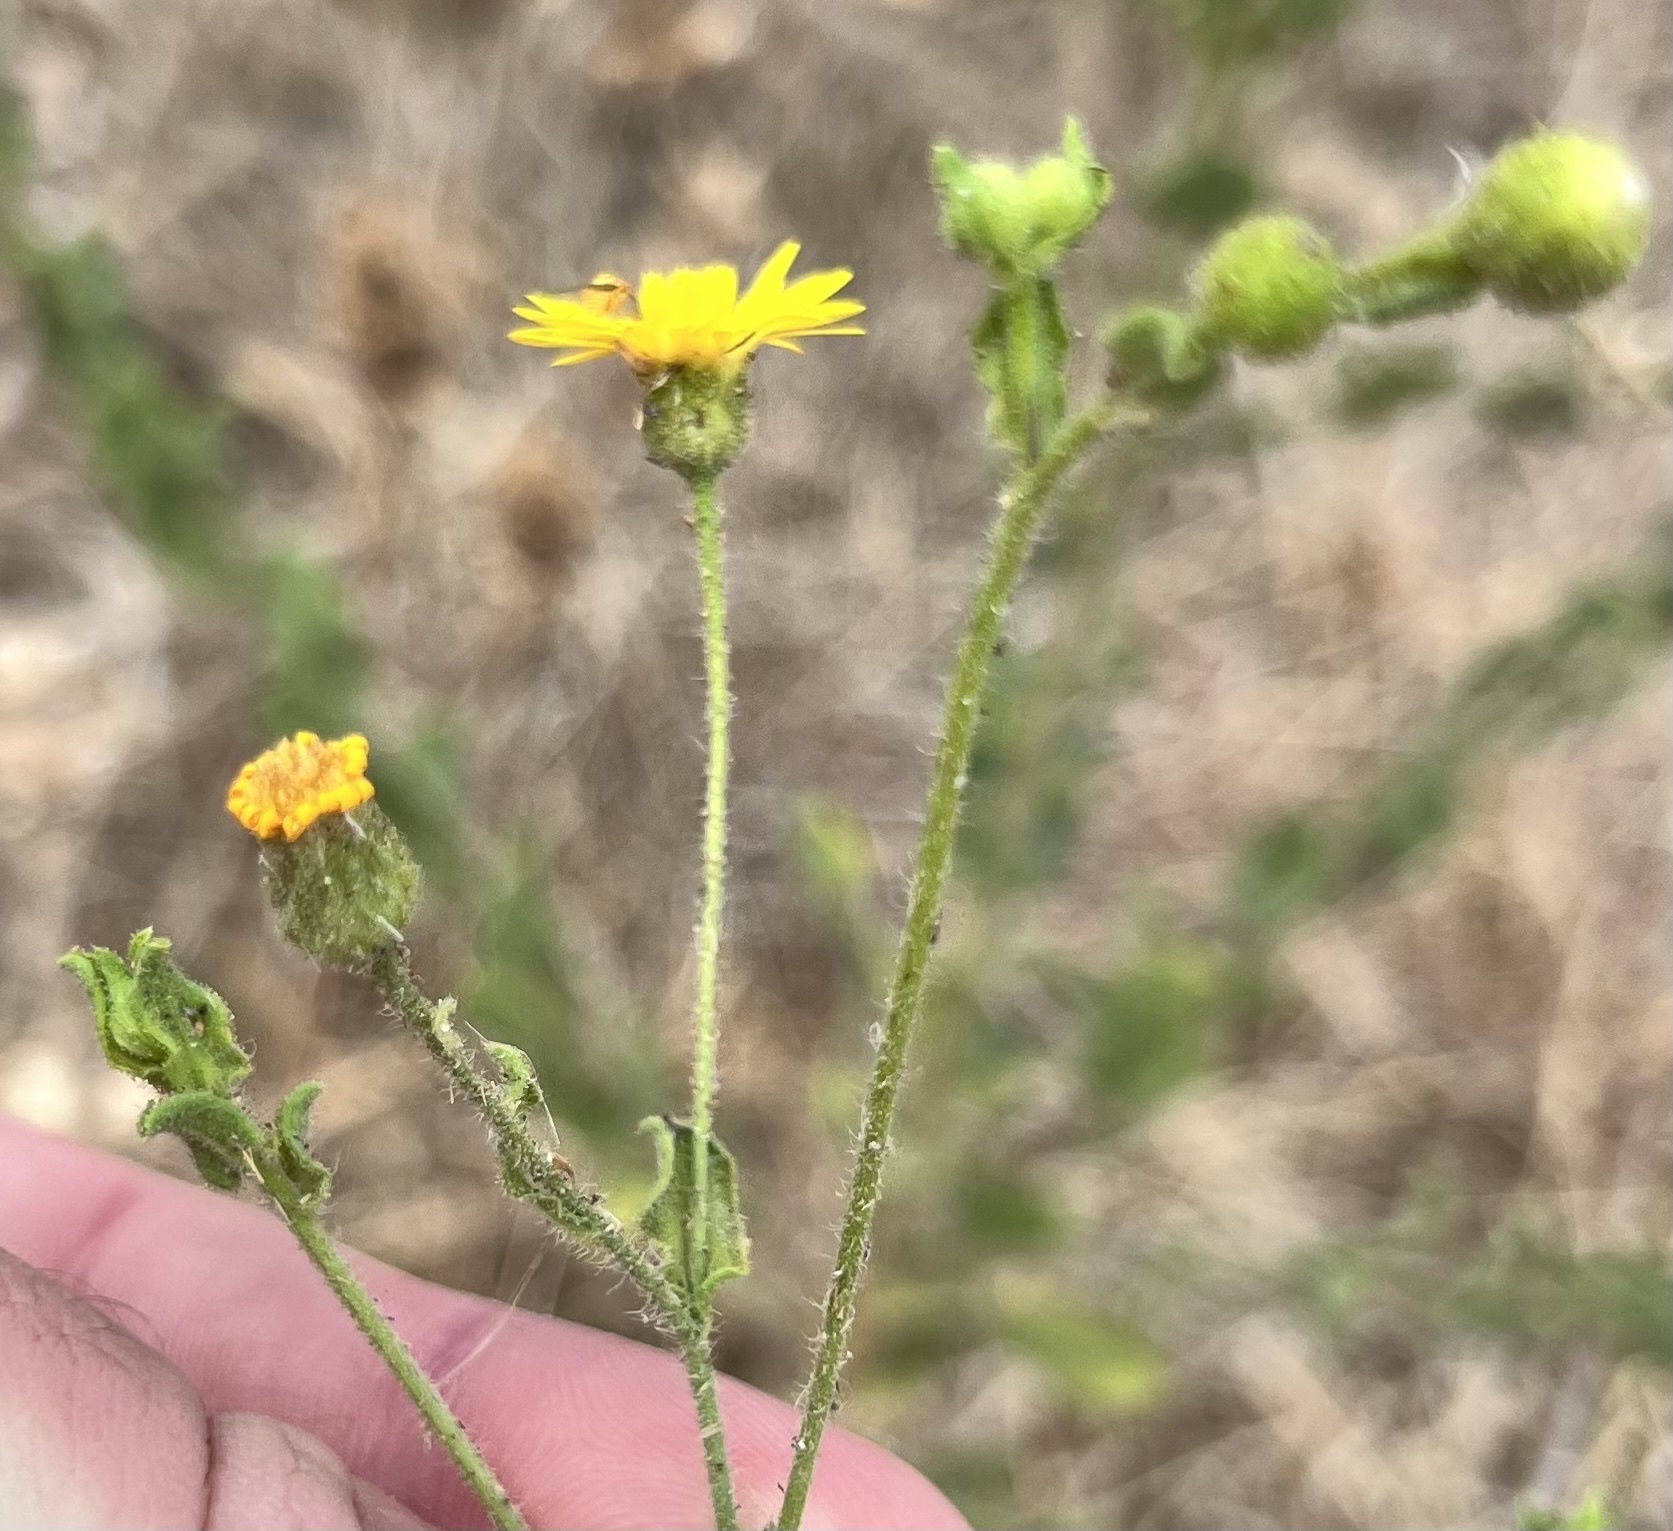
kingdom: Plantae
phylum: Tracheophyta
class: Magnoliopsida
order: Asterales
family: Asteraceae
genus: Heterotheca
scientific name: Heterotheca subaxillaris
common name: Camphorweed
